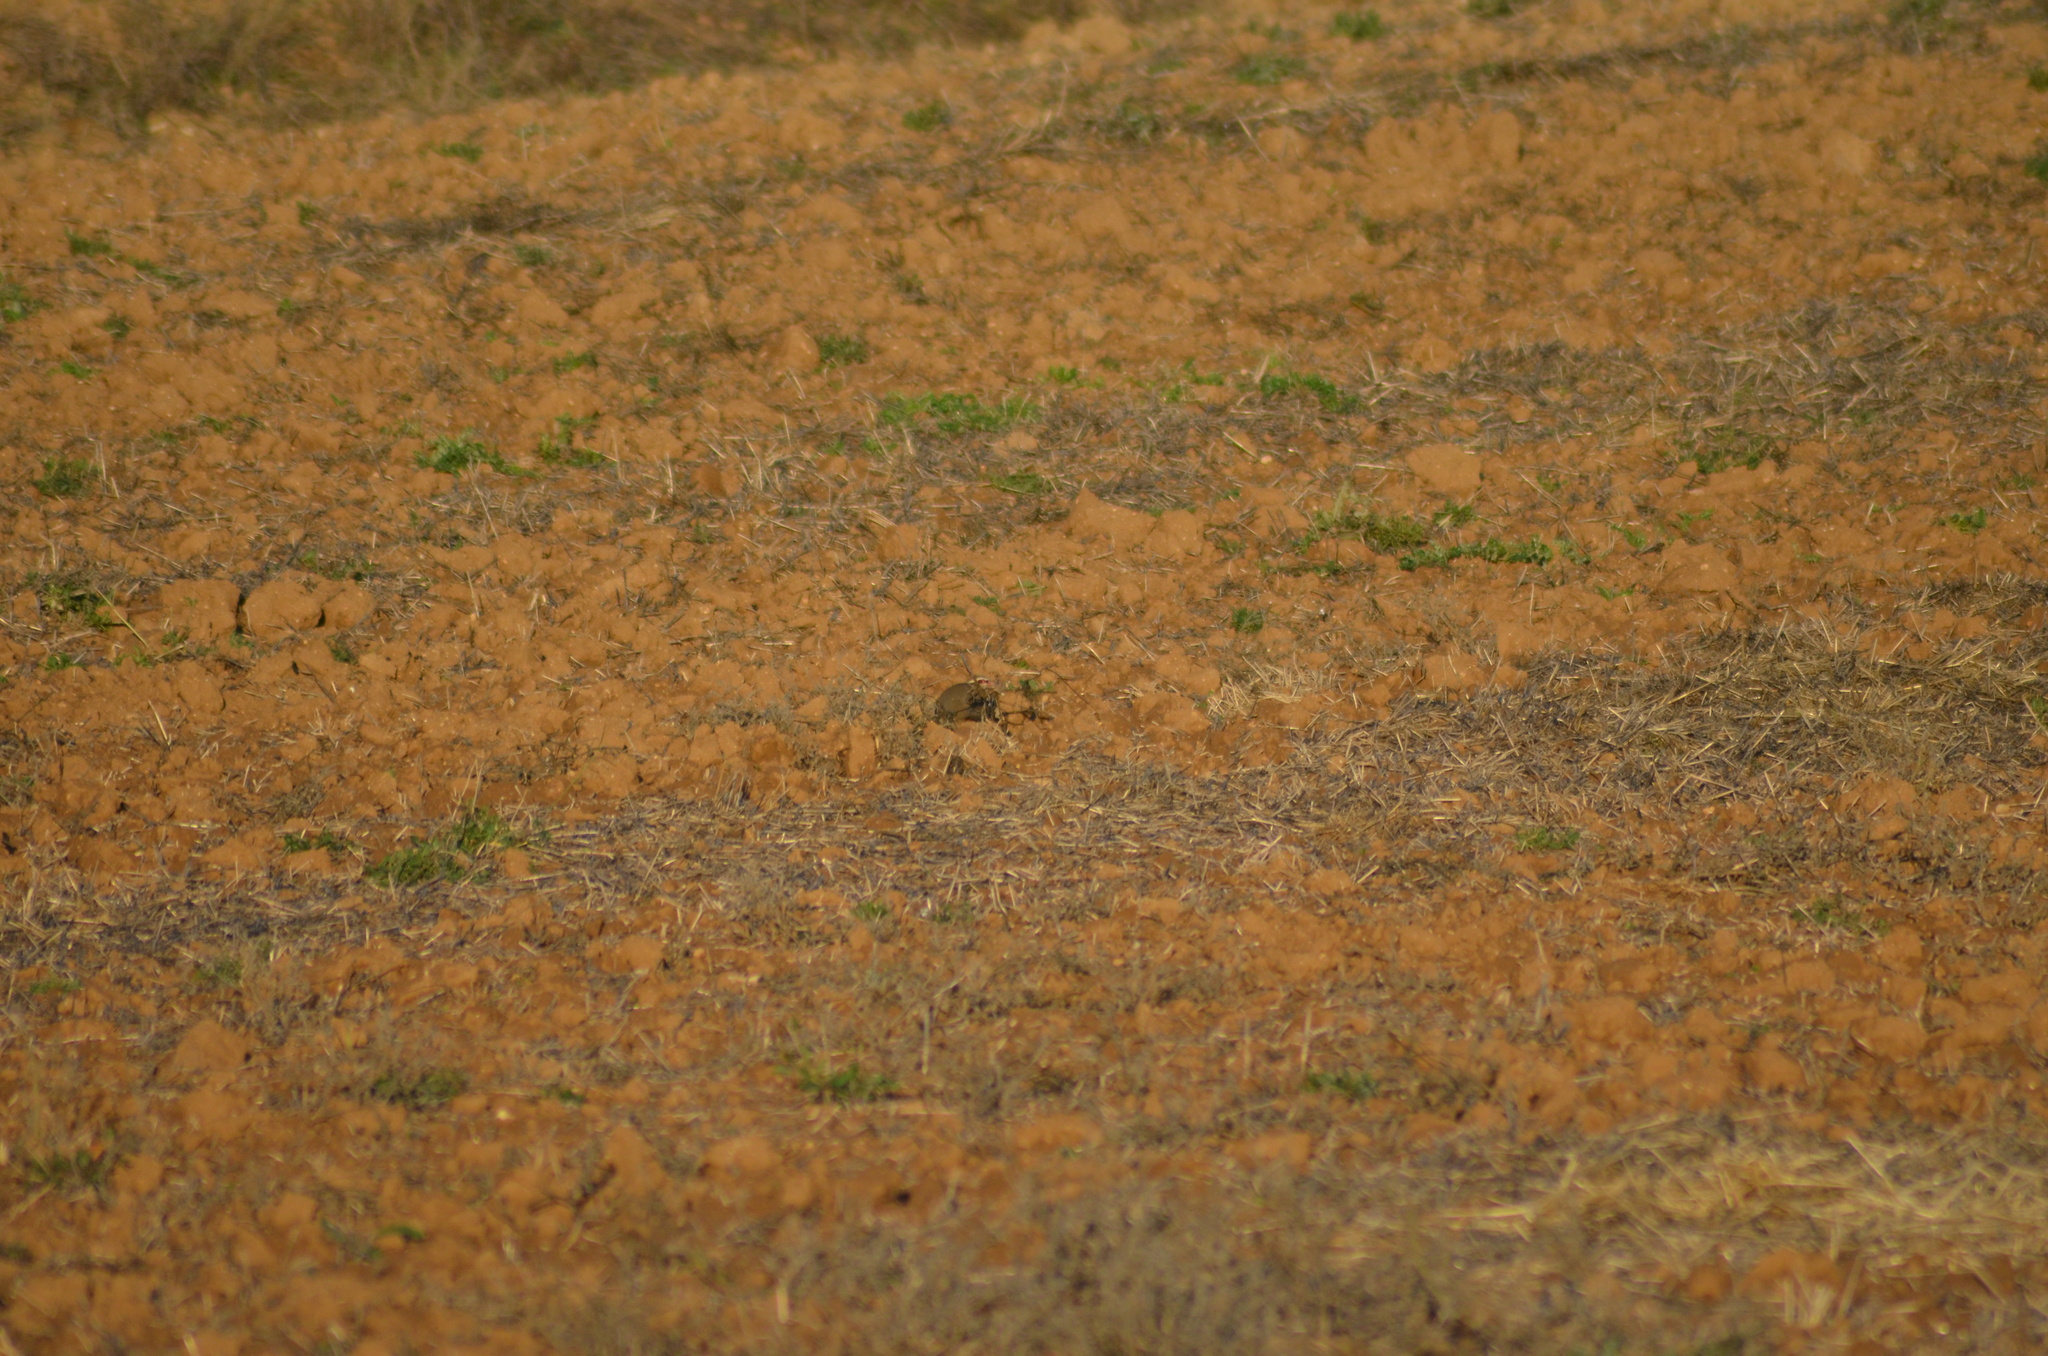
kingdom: Animalia
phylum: Chordata
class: Aves
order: Galliformes
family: Phasianidae
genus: Alectoris
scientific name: Alectoris rufa
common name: Red-legged partridge
